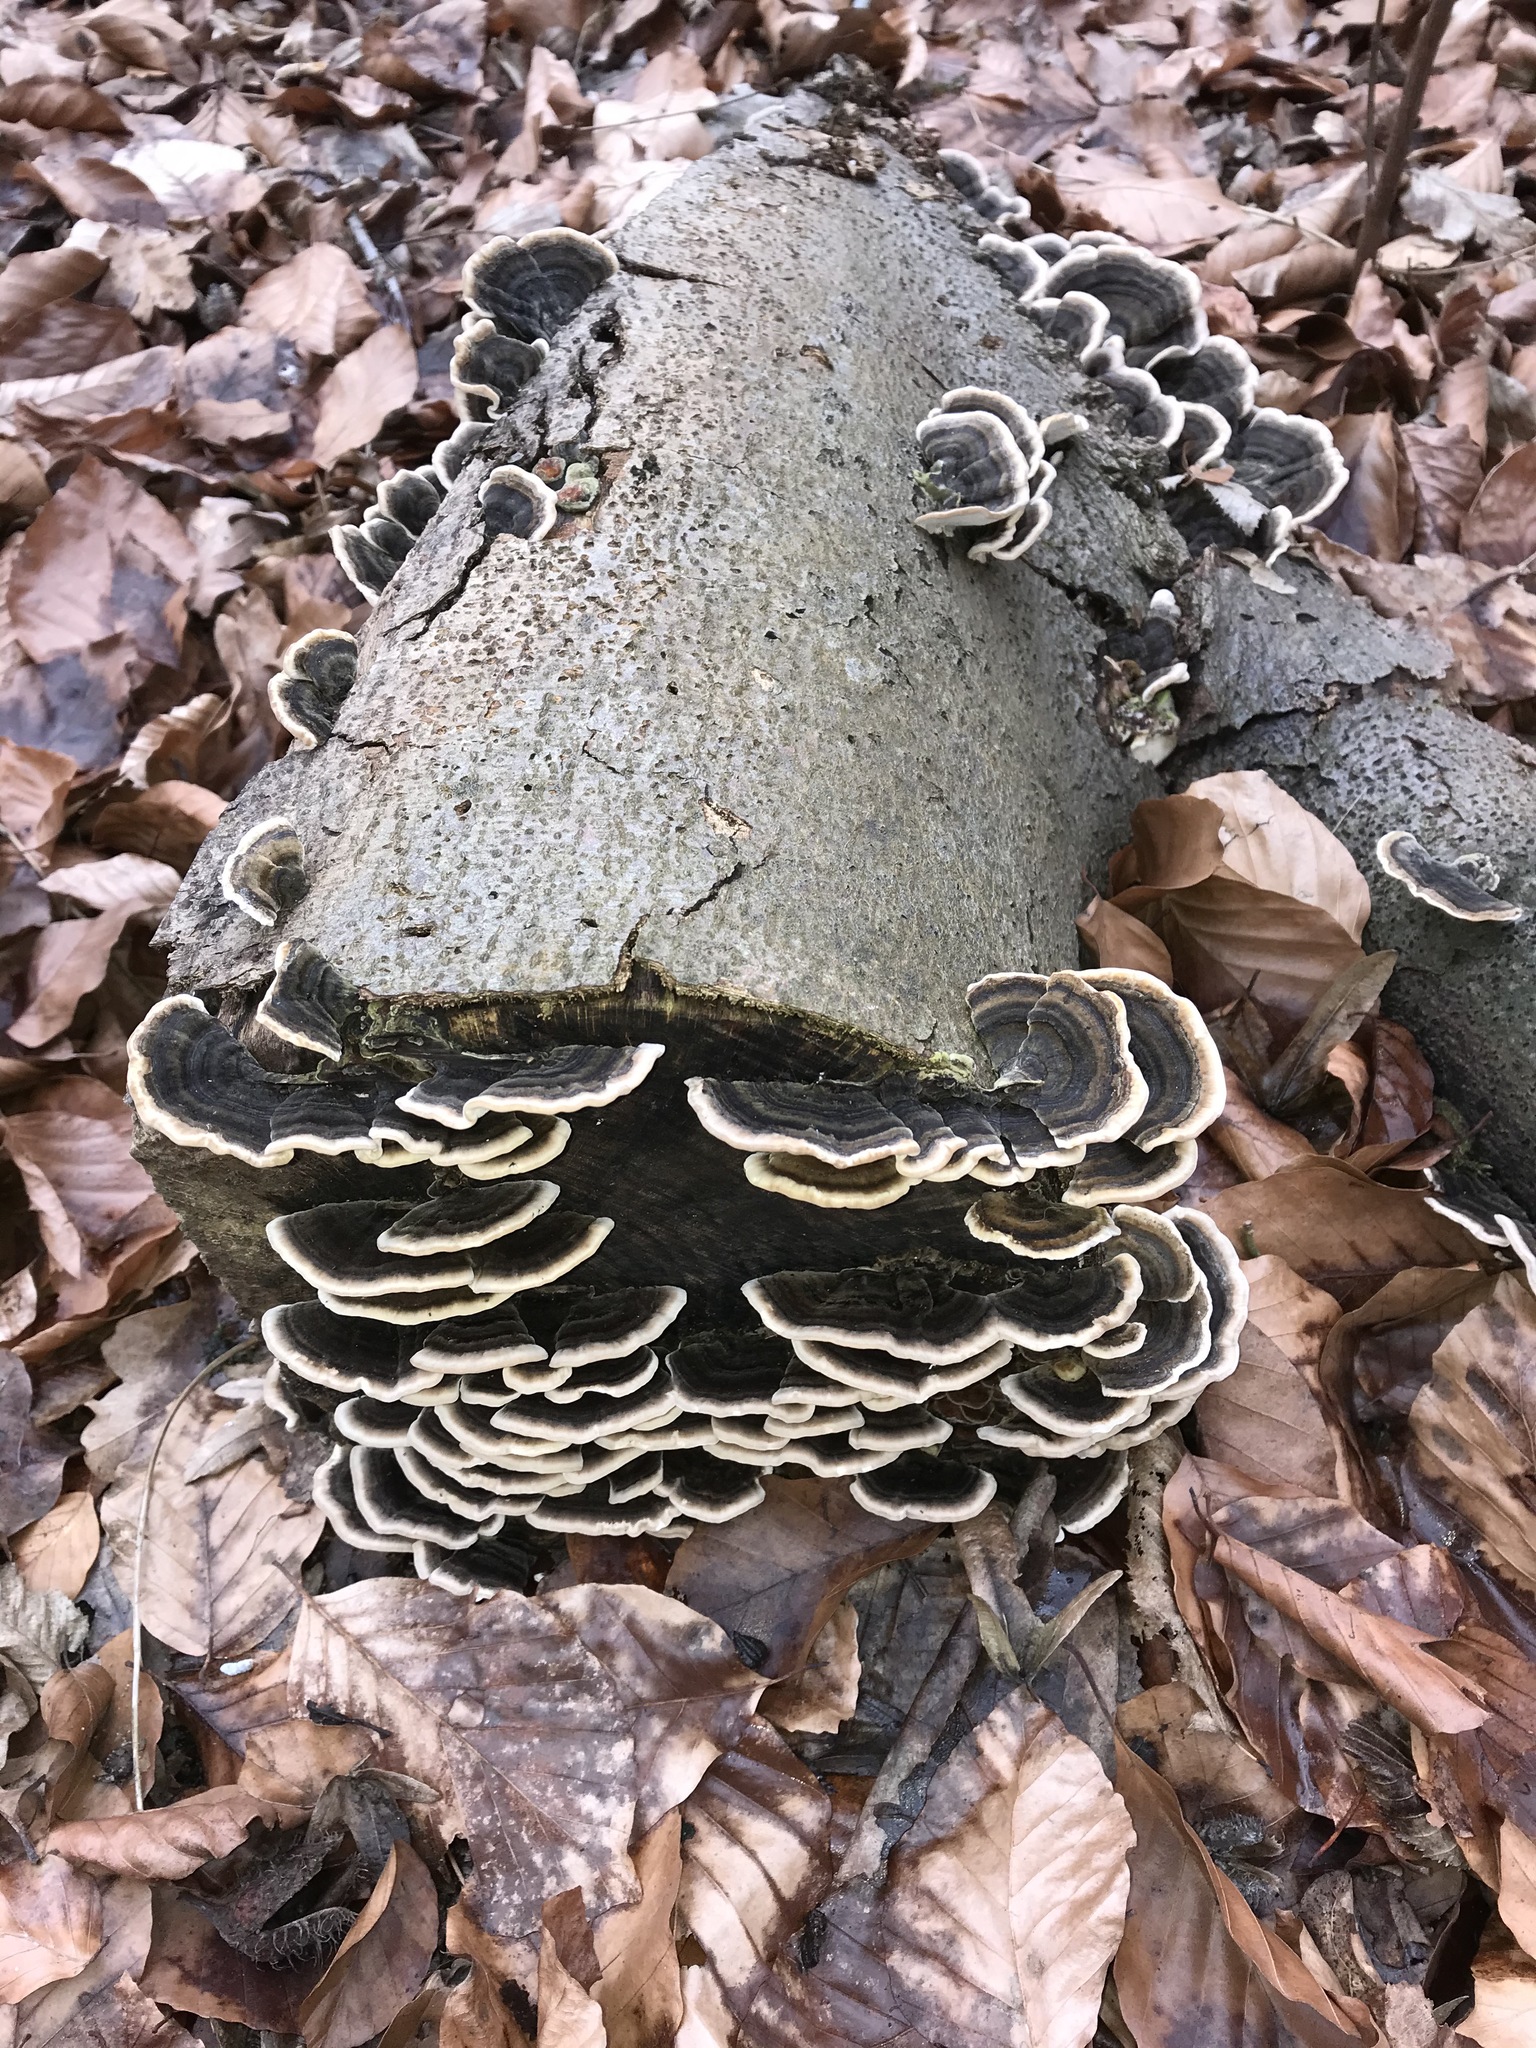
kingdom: Fungi
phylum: Basidiomycota
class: Agaricomycetes
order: Polyporales
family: Polyporaceae
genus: Trametes
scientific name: Trametes versicolor
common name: Turkeytail
